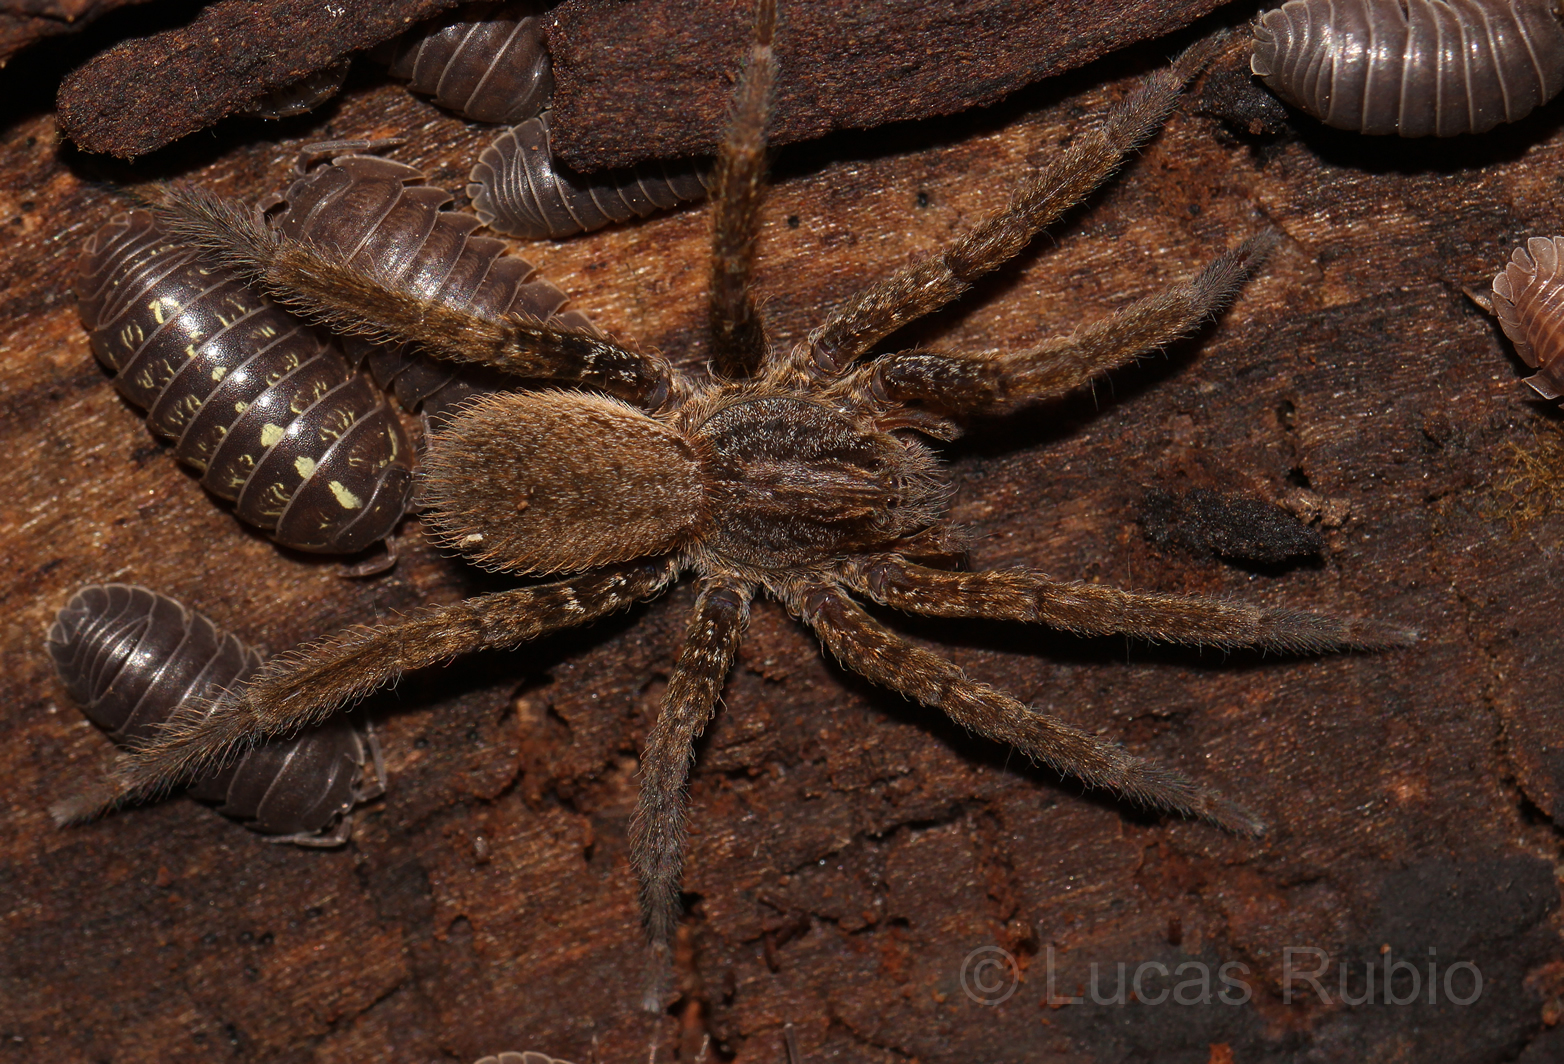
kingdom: Animalia
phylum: Arthropoda
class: Arachnida
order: Araneae
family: Ctenidae
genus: Ancylometes
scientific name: Ancylometes concolor
